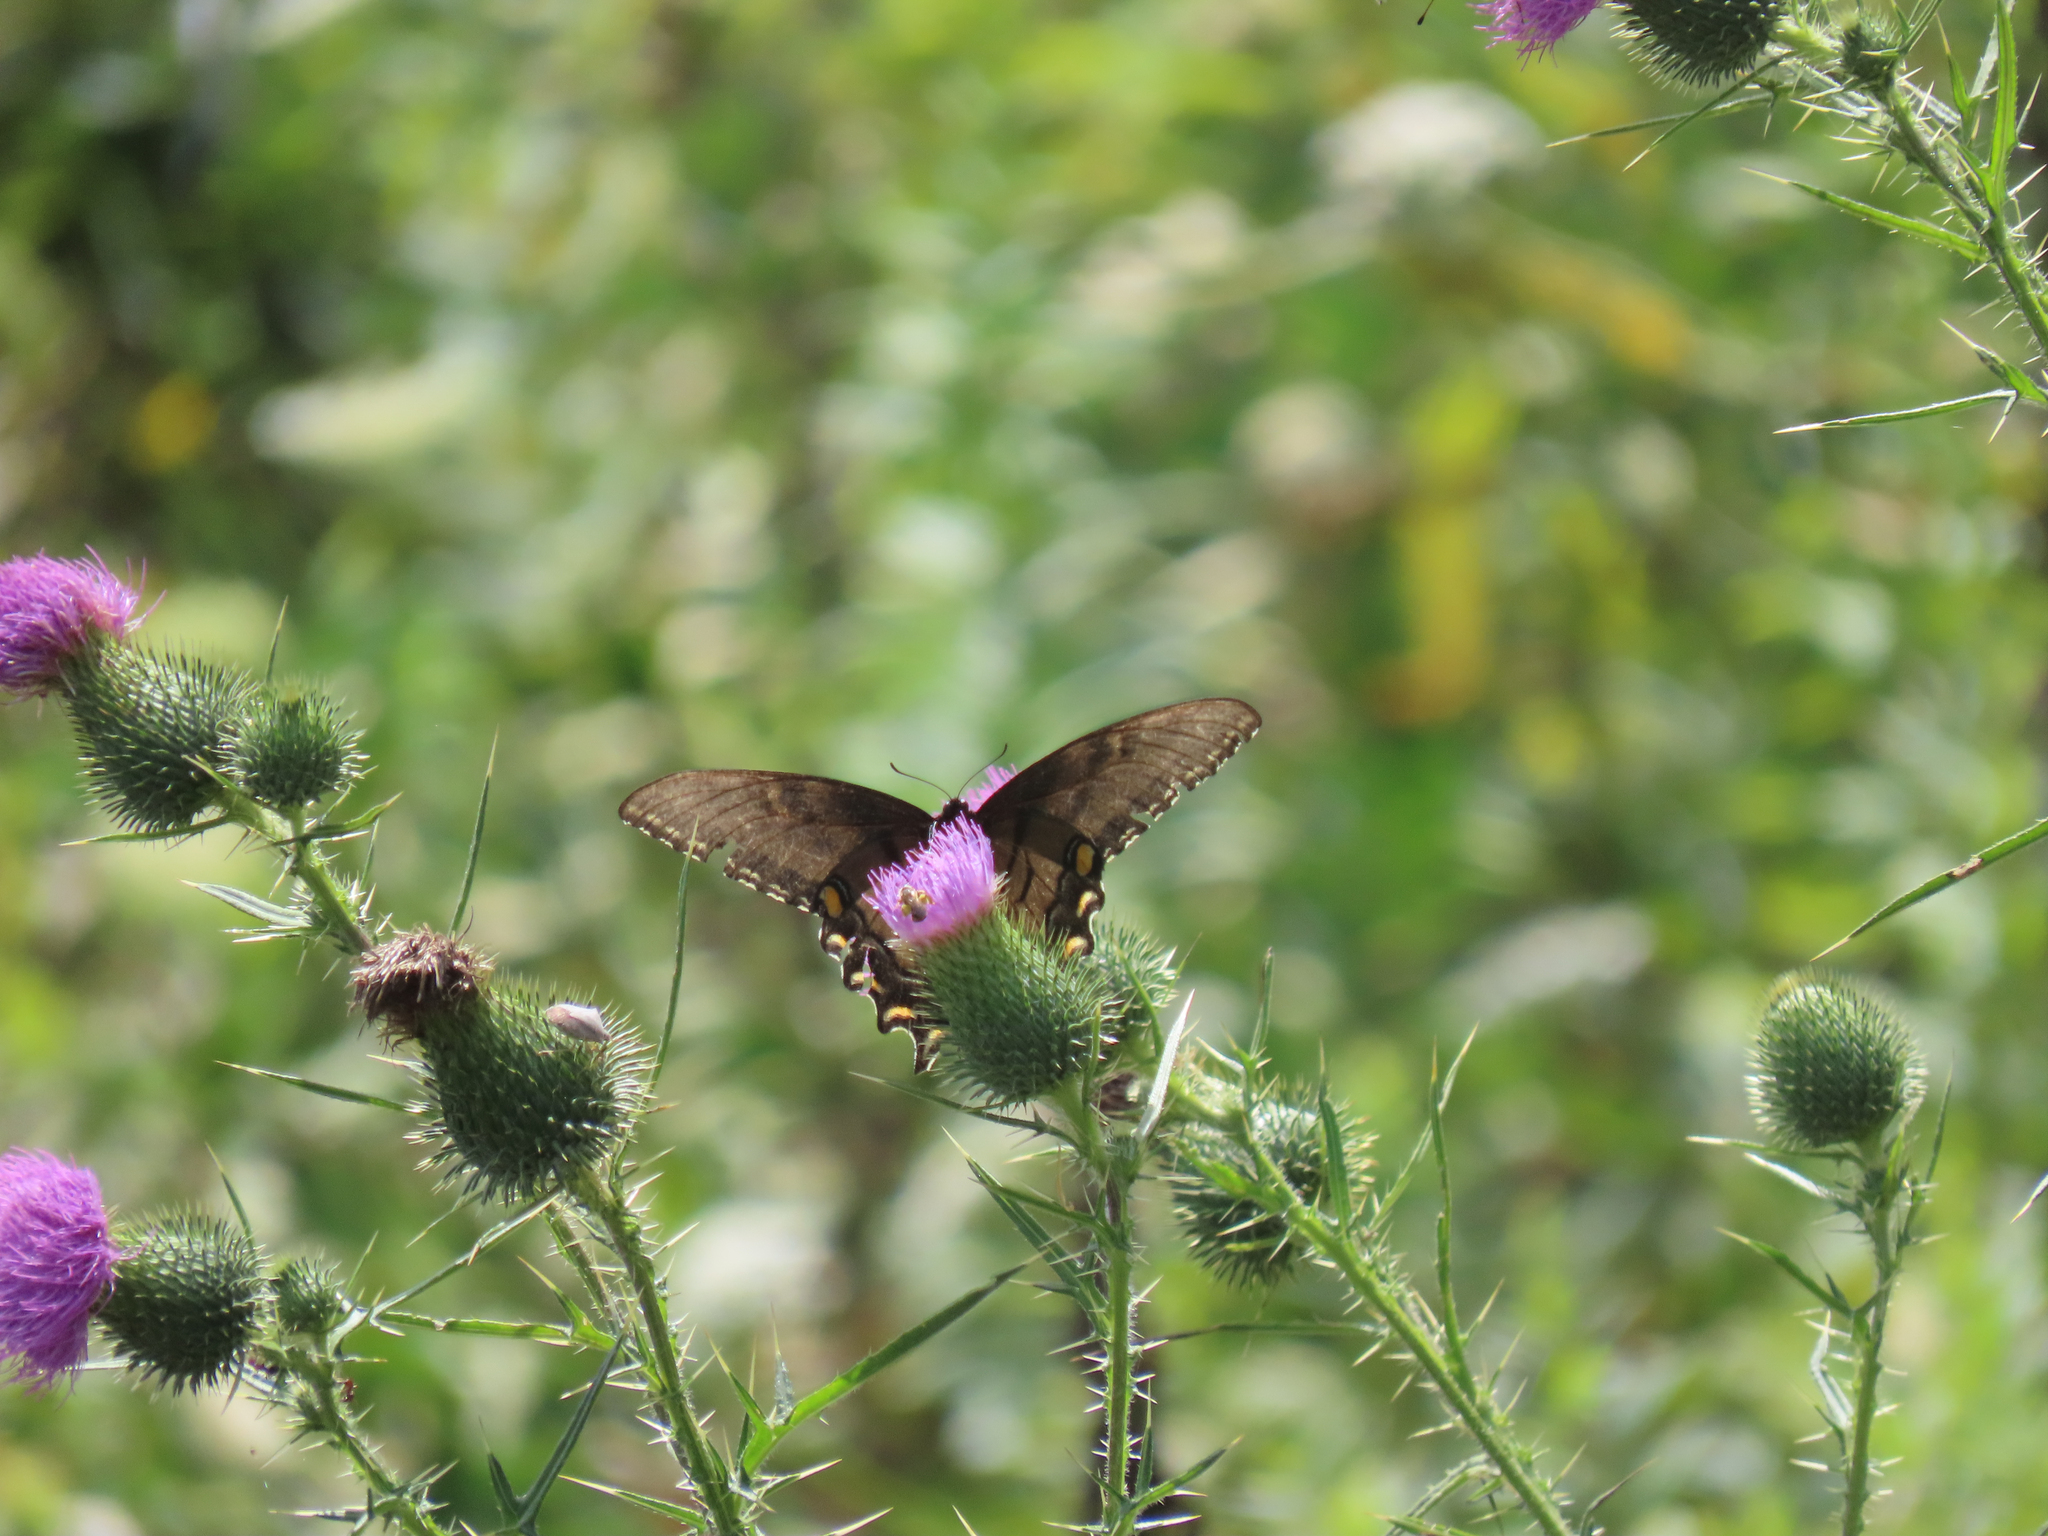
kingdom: Animalia
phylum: Arthropoda
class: Insecta
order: Lepidoptera
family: Papilionidae
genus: Papilio
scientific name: Papilio glaucus
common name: Tiger swallowtail
